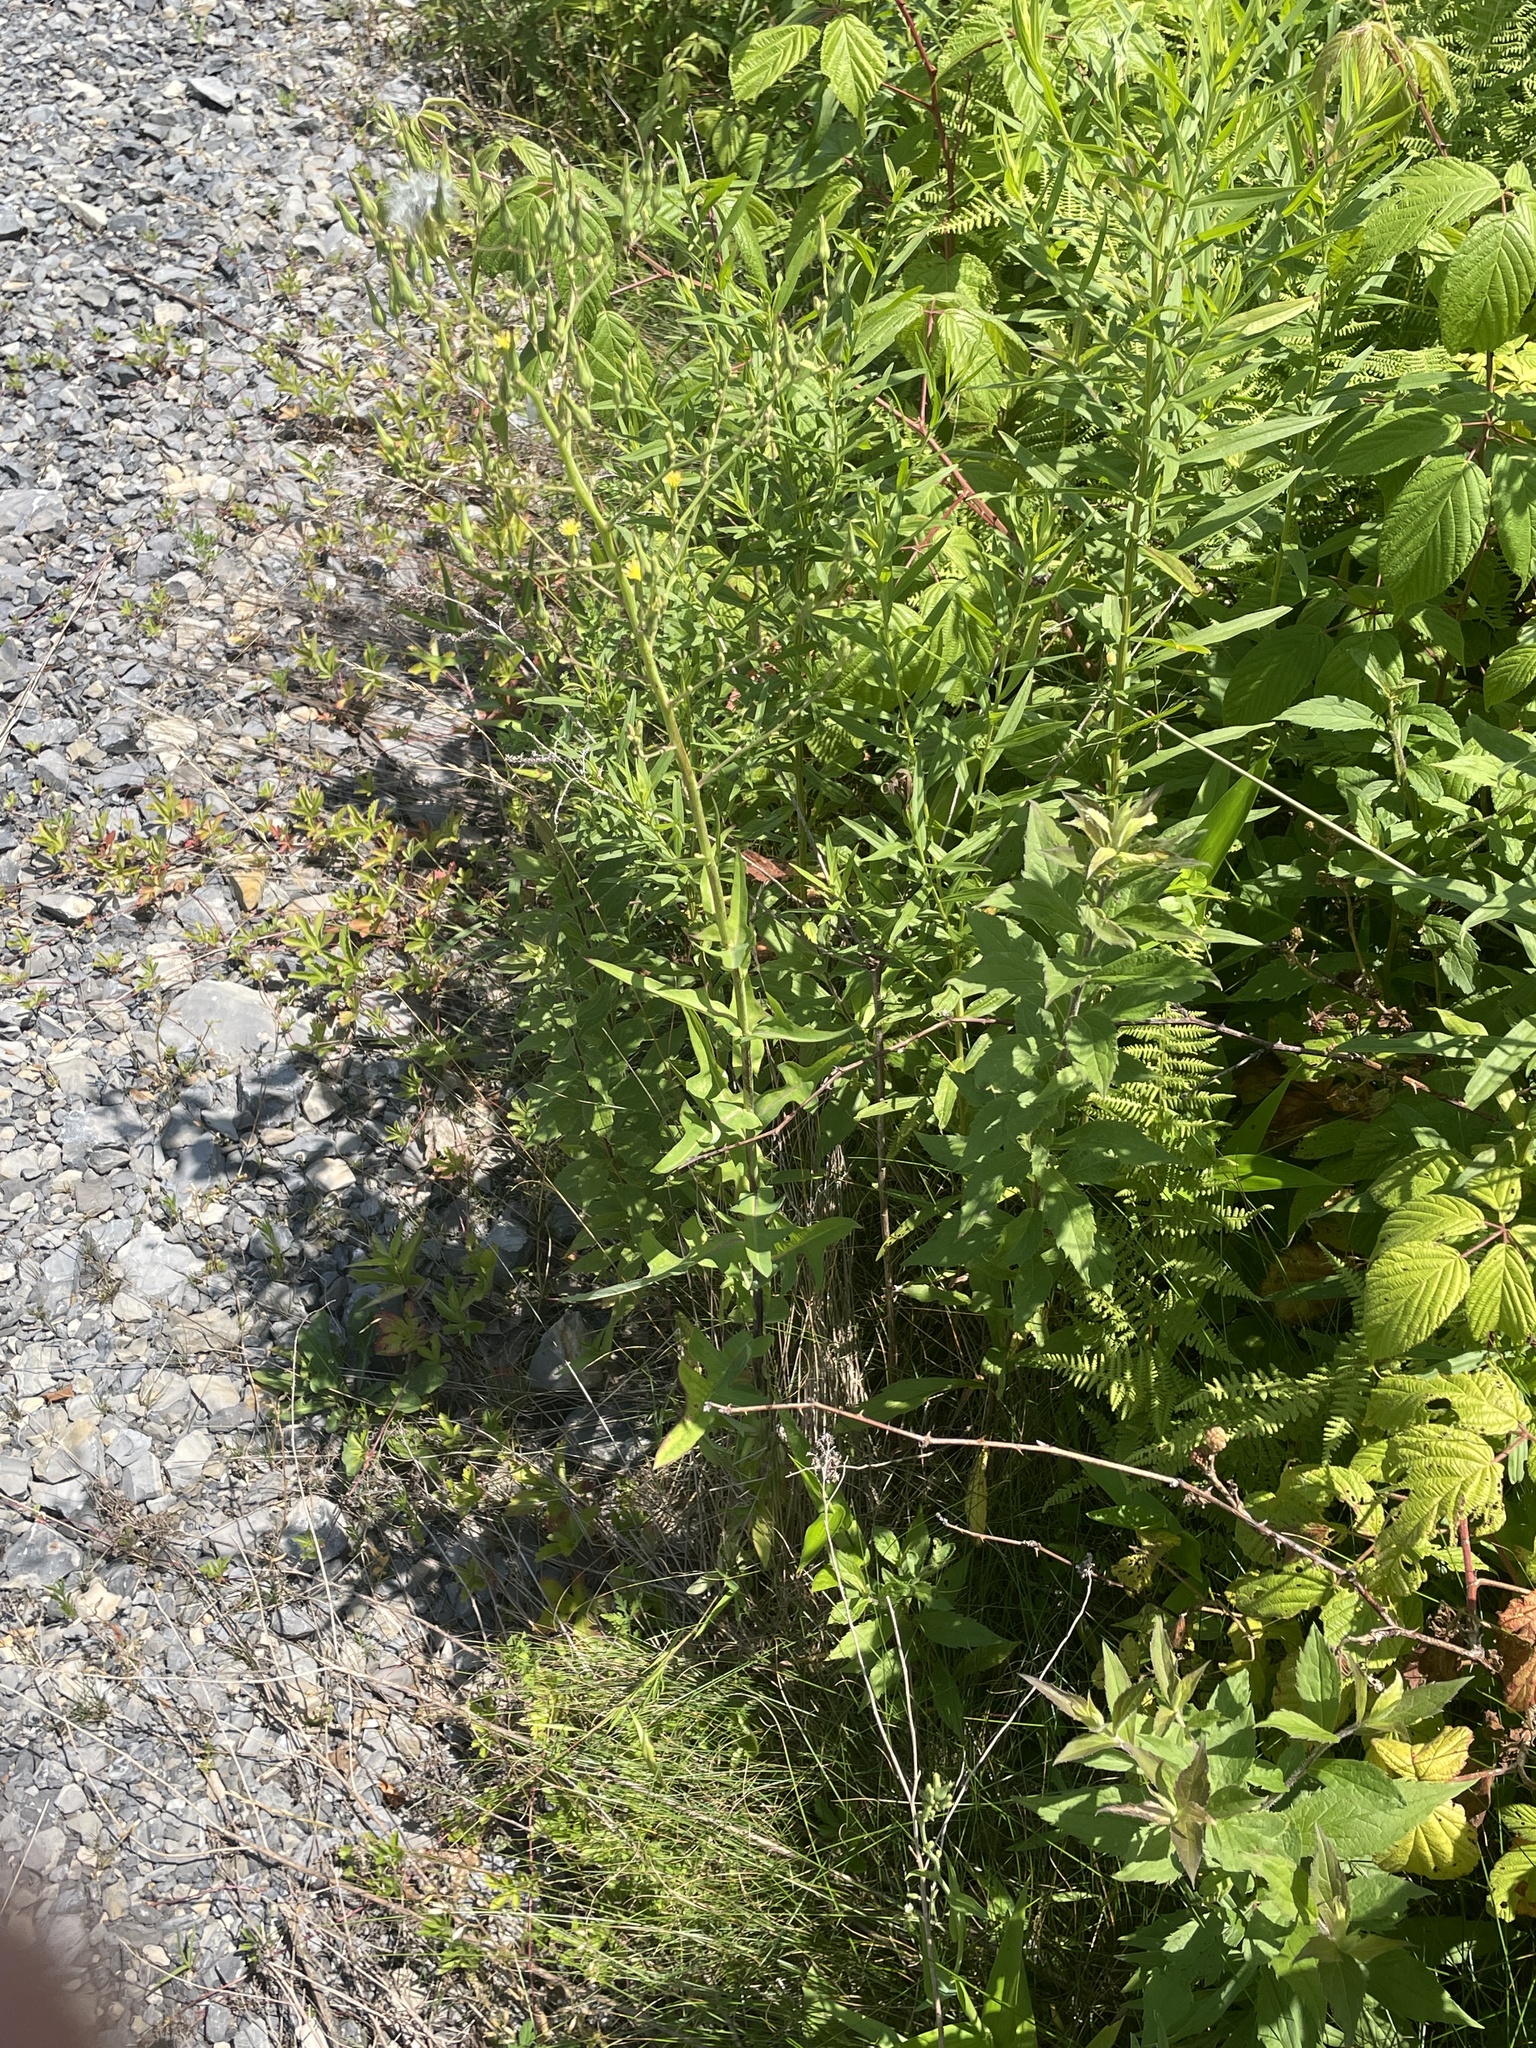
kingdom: Plantae
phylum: Tracheophyta
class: Magnoliopsida
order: Asterales
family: Asteraceae
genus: Lactuca
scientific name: Lactuca canadensis
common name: Canada lettuce
